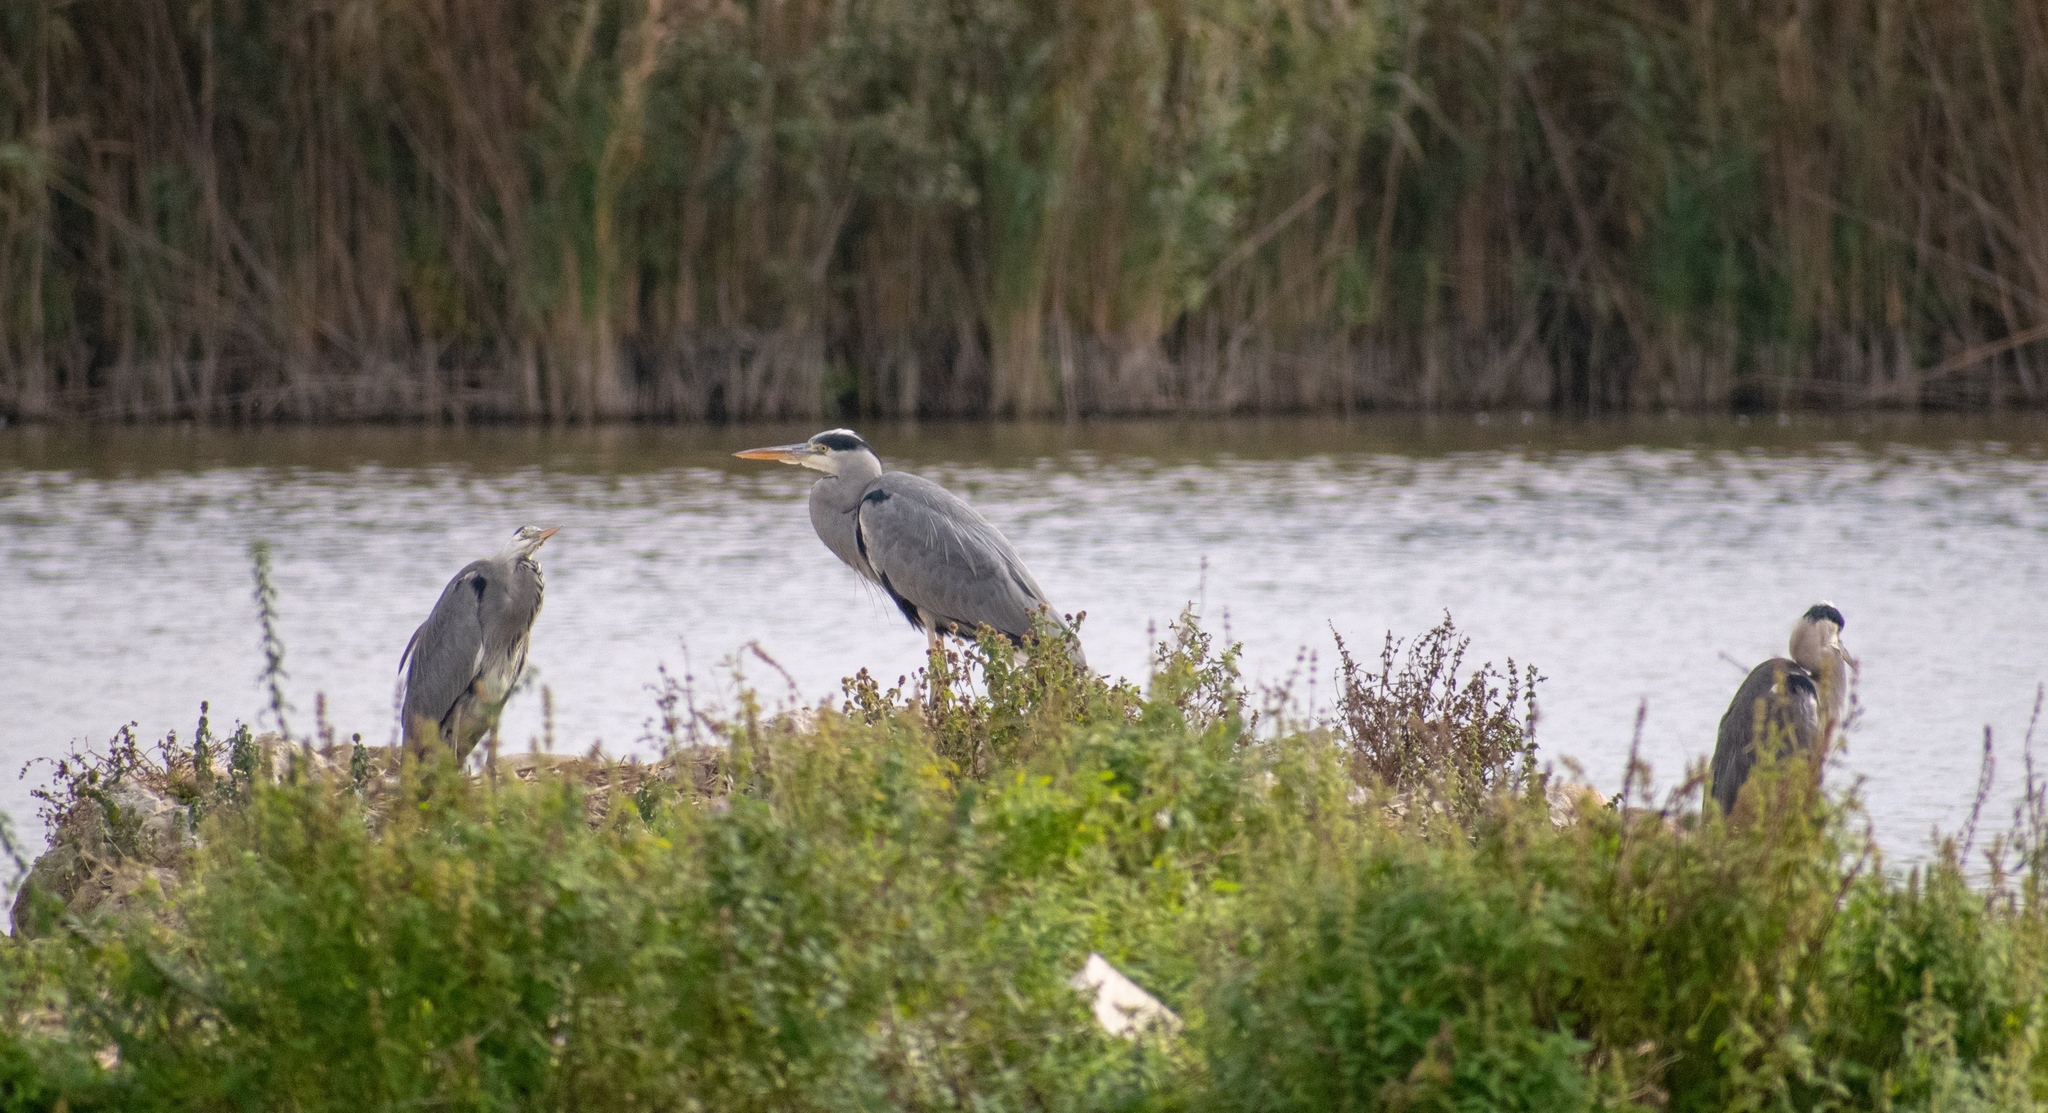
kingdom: Animalia
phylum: Chordata
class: Aves
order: Pelecaniformes
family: Ardeidae
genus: Ardea
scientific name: Ardea cinerea
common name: Grey heron
